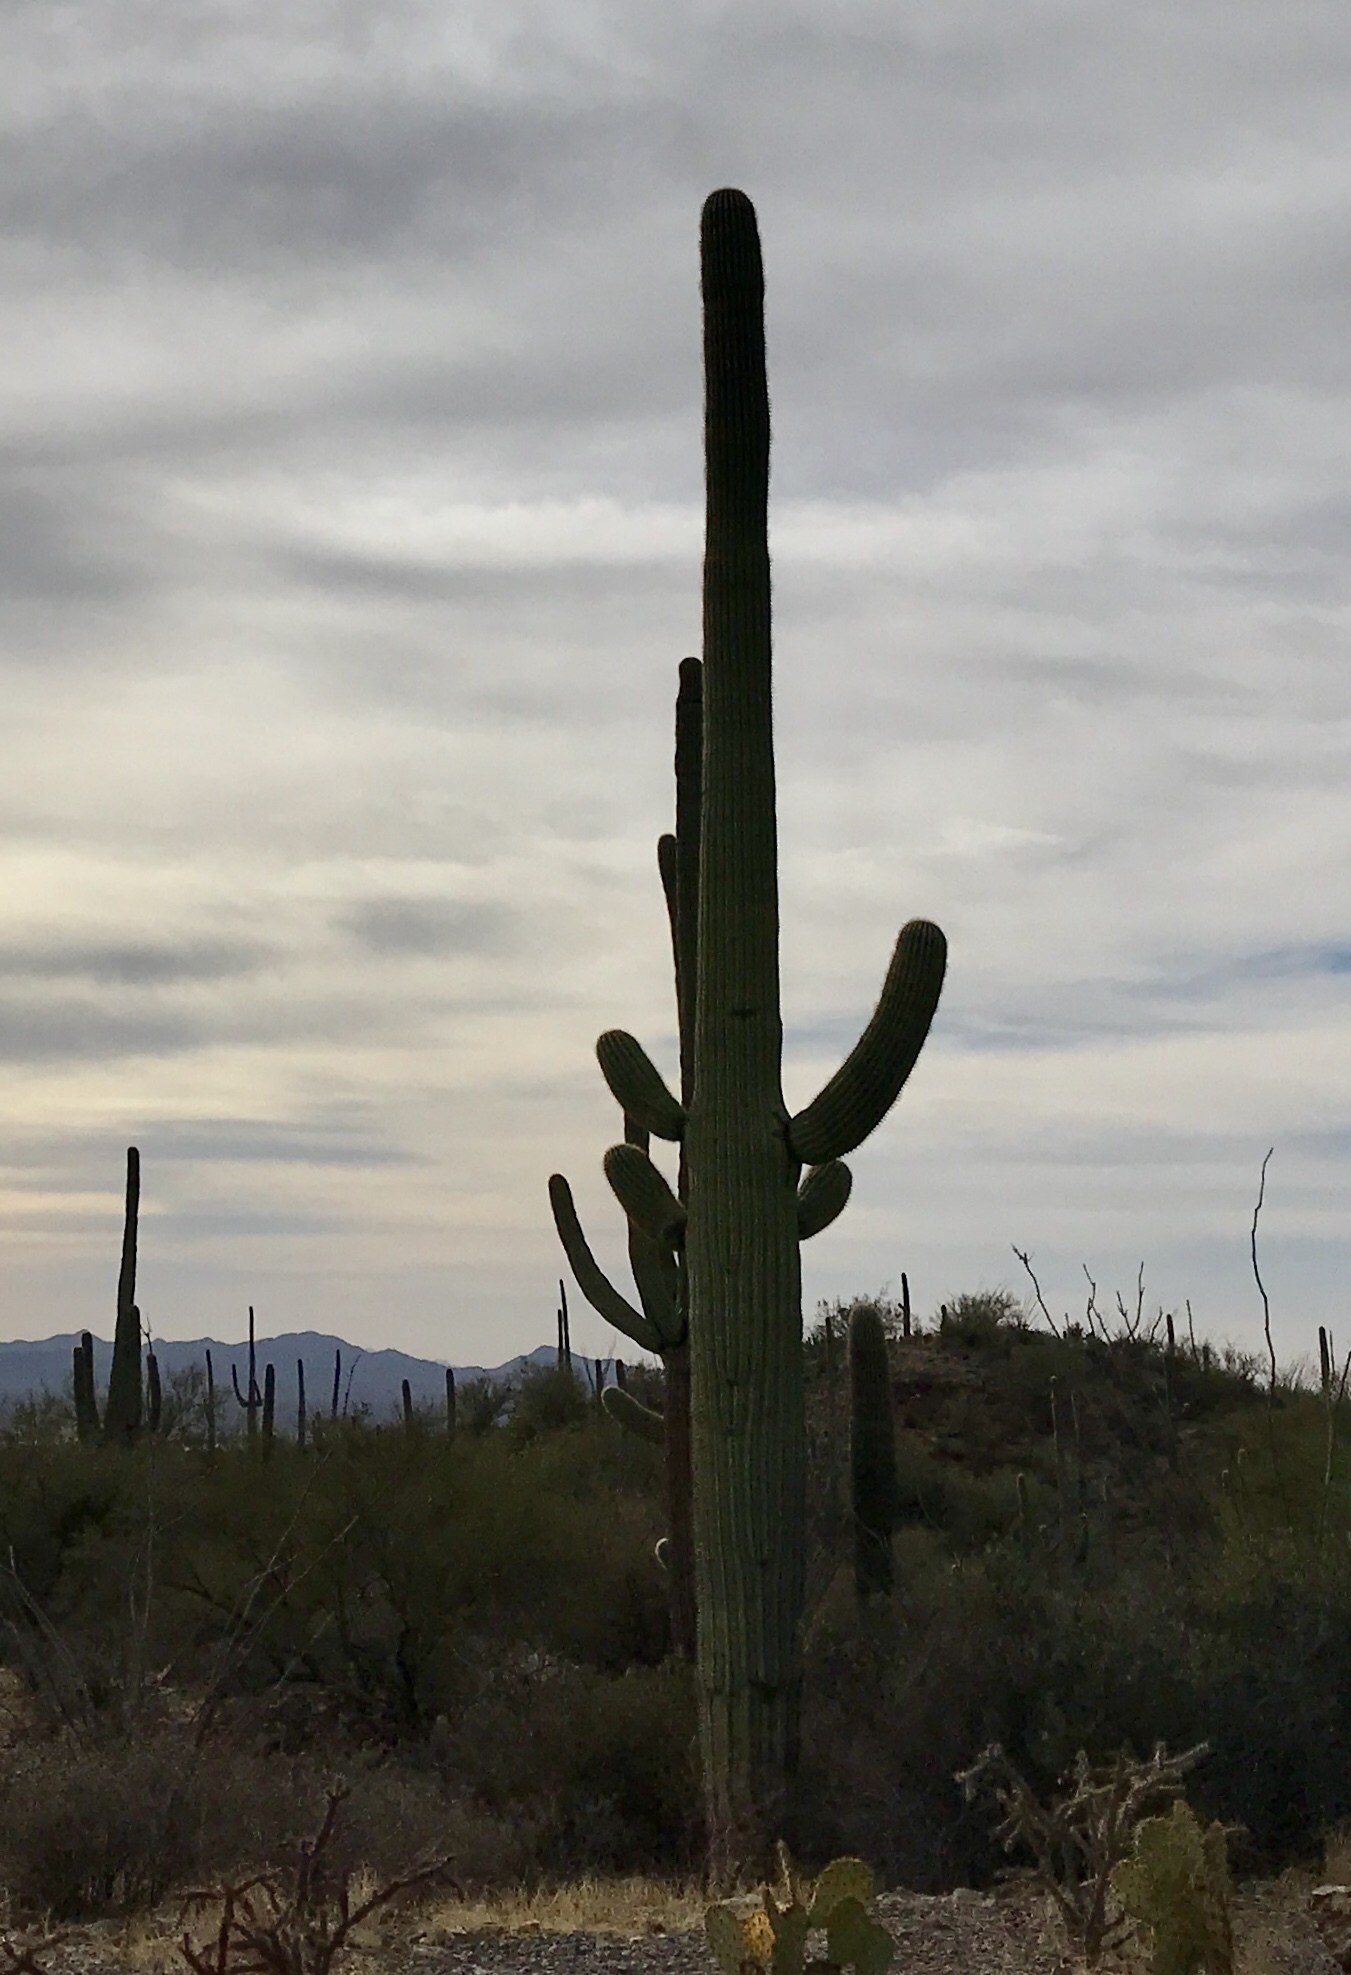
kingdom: Plantae
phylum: Tracheophyta
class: Magnoliopsida
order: Caryophyllales
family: Cactaceae
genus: Carnegiea
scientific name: Carnegiea gigantea
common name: Saguaro
